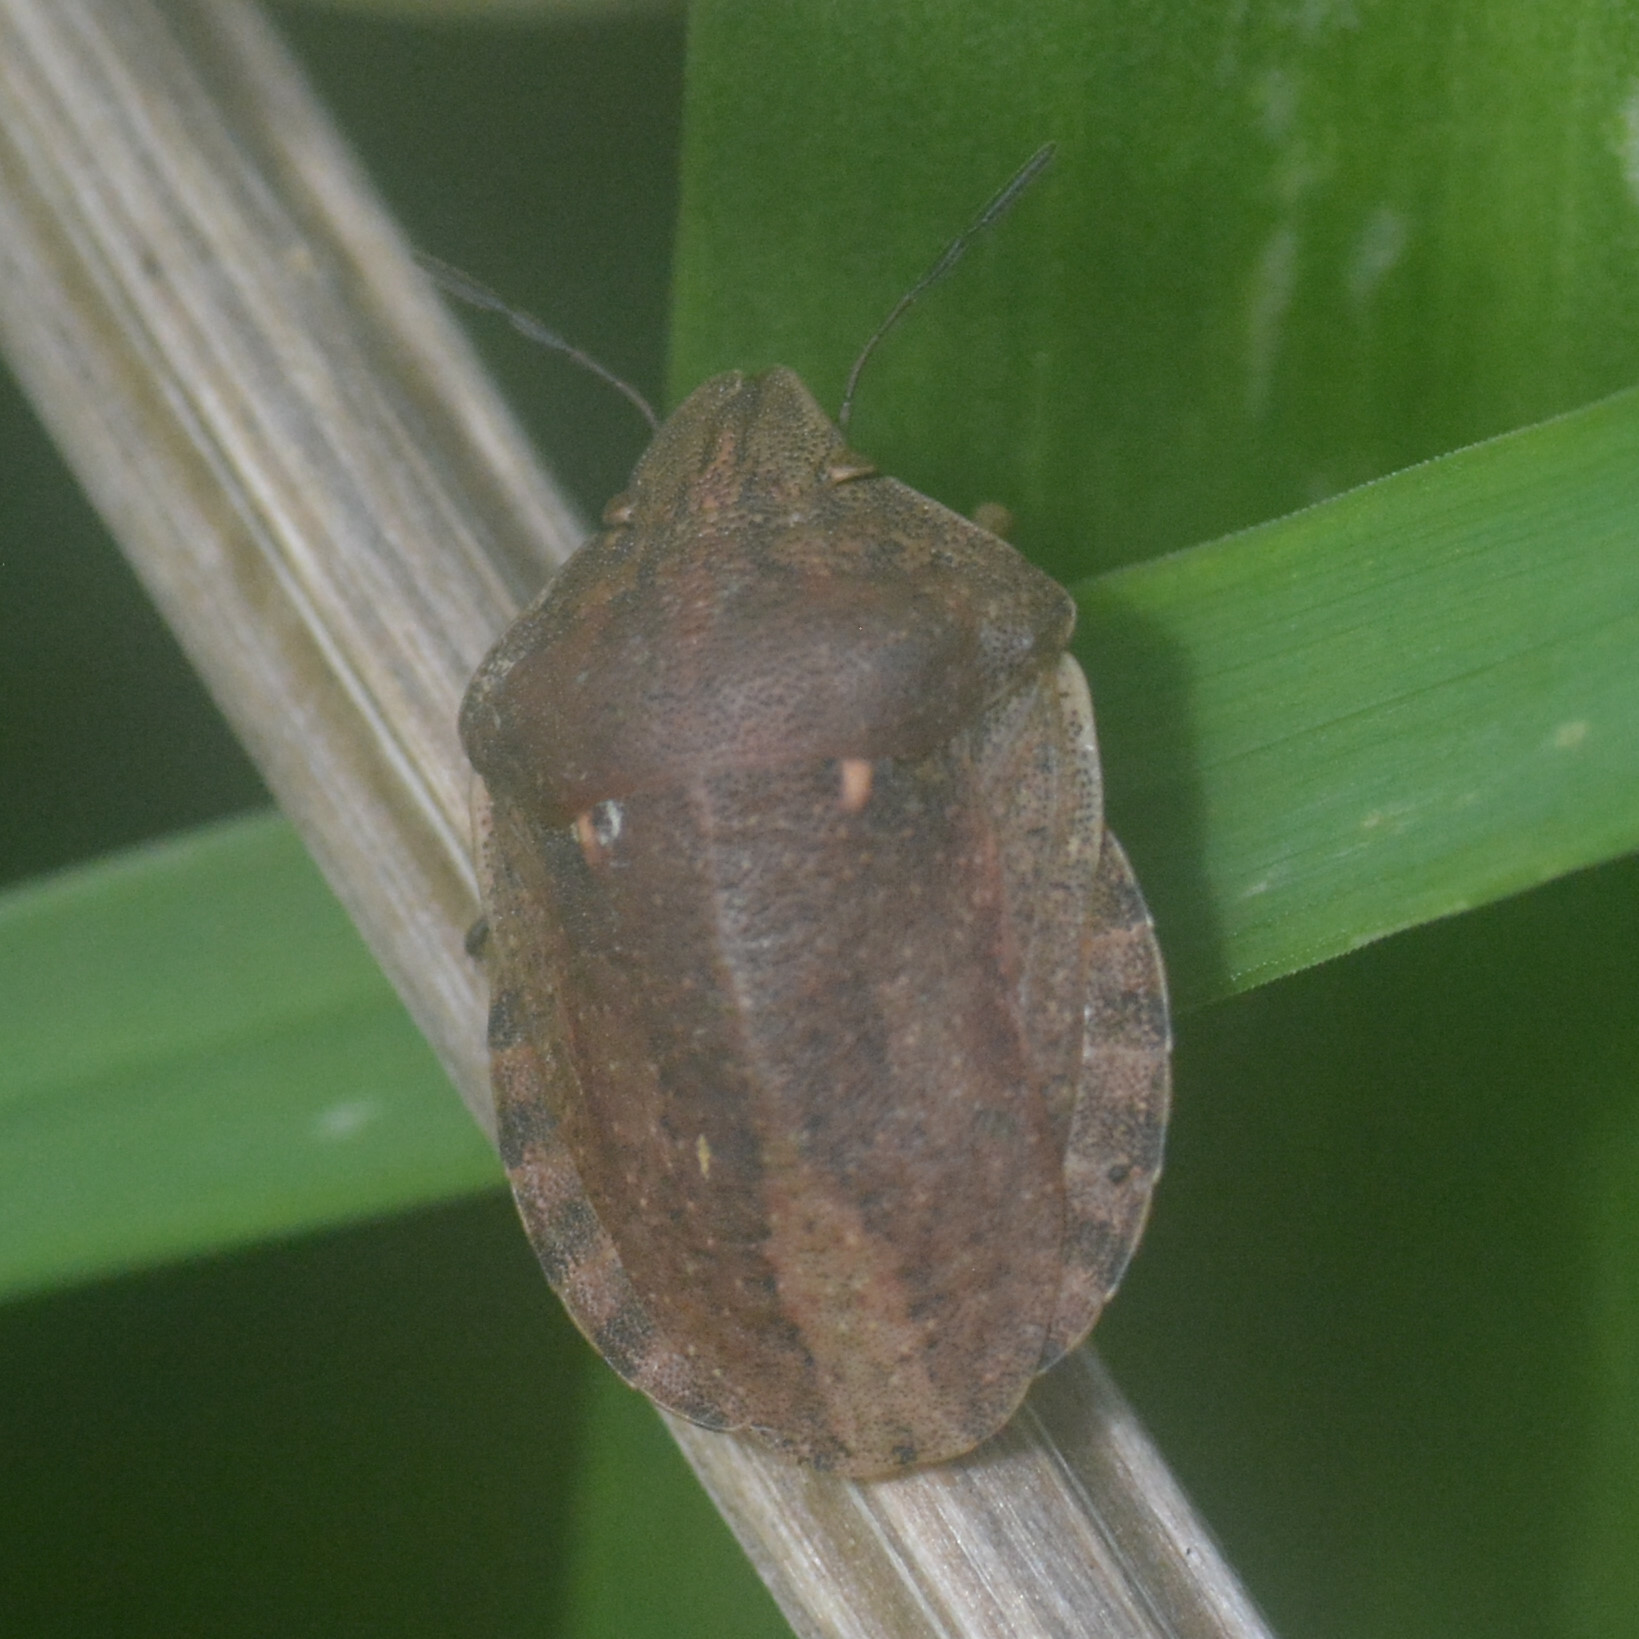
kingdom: Animalia
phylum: Arthropoda
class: Insecta
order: Hemiptera
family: Scutelleridae
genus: Eurygaster
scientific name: Eurygaster testudinaria
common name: Tortoise bug
